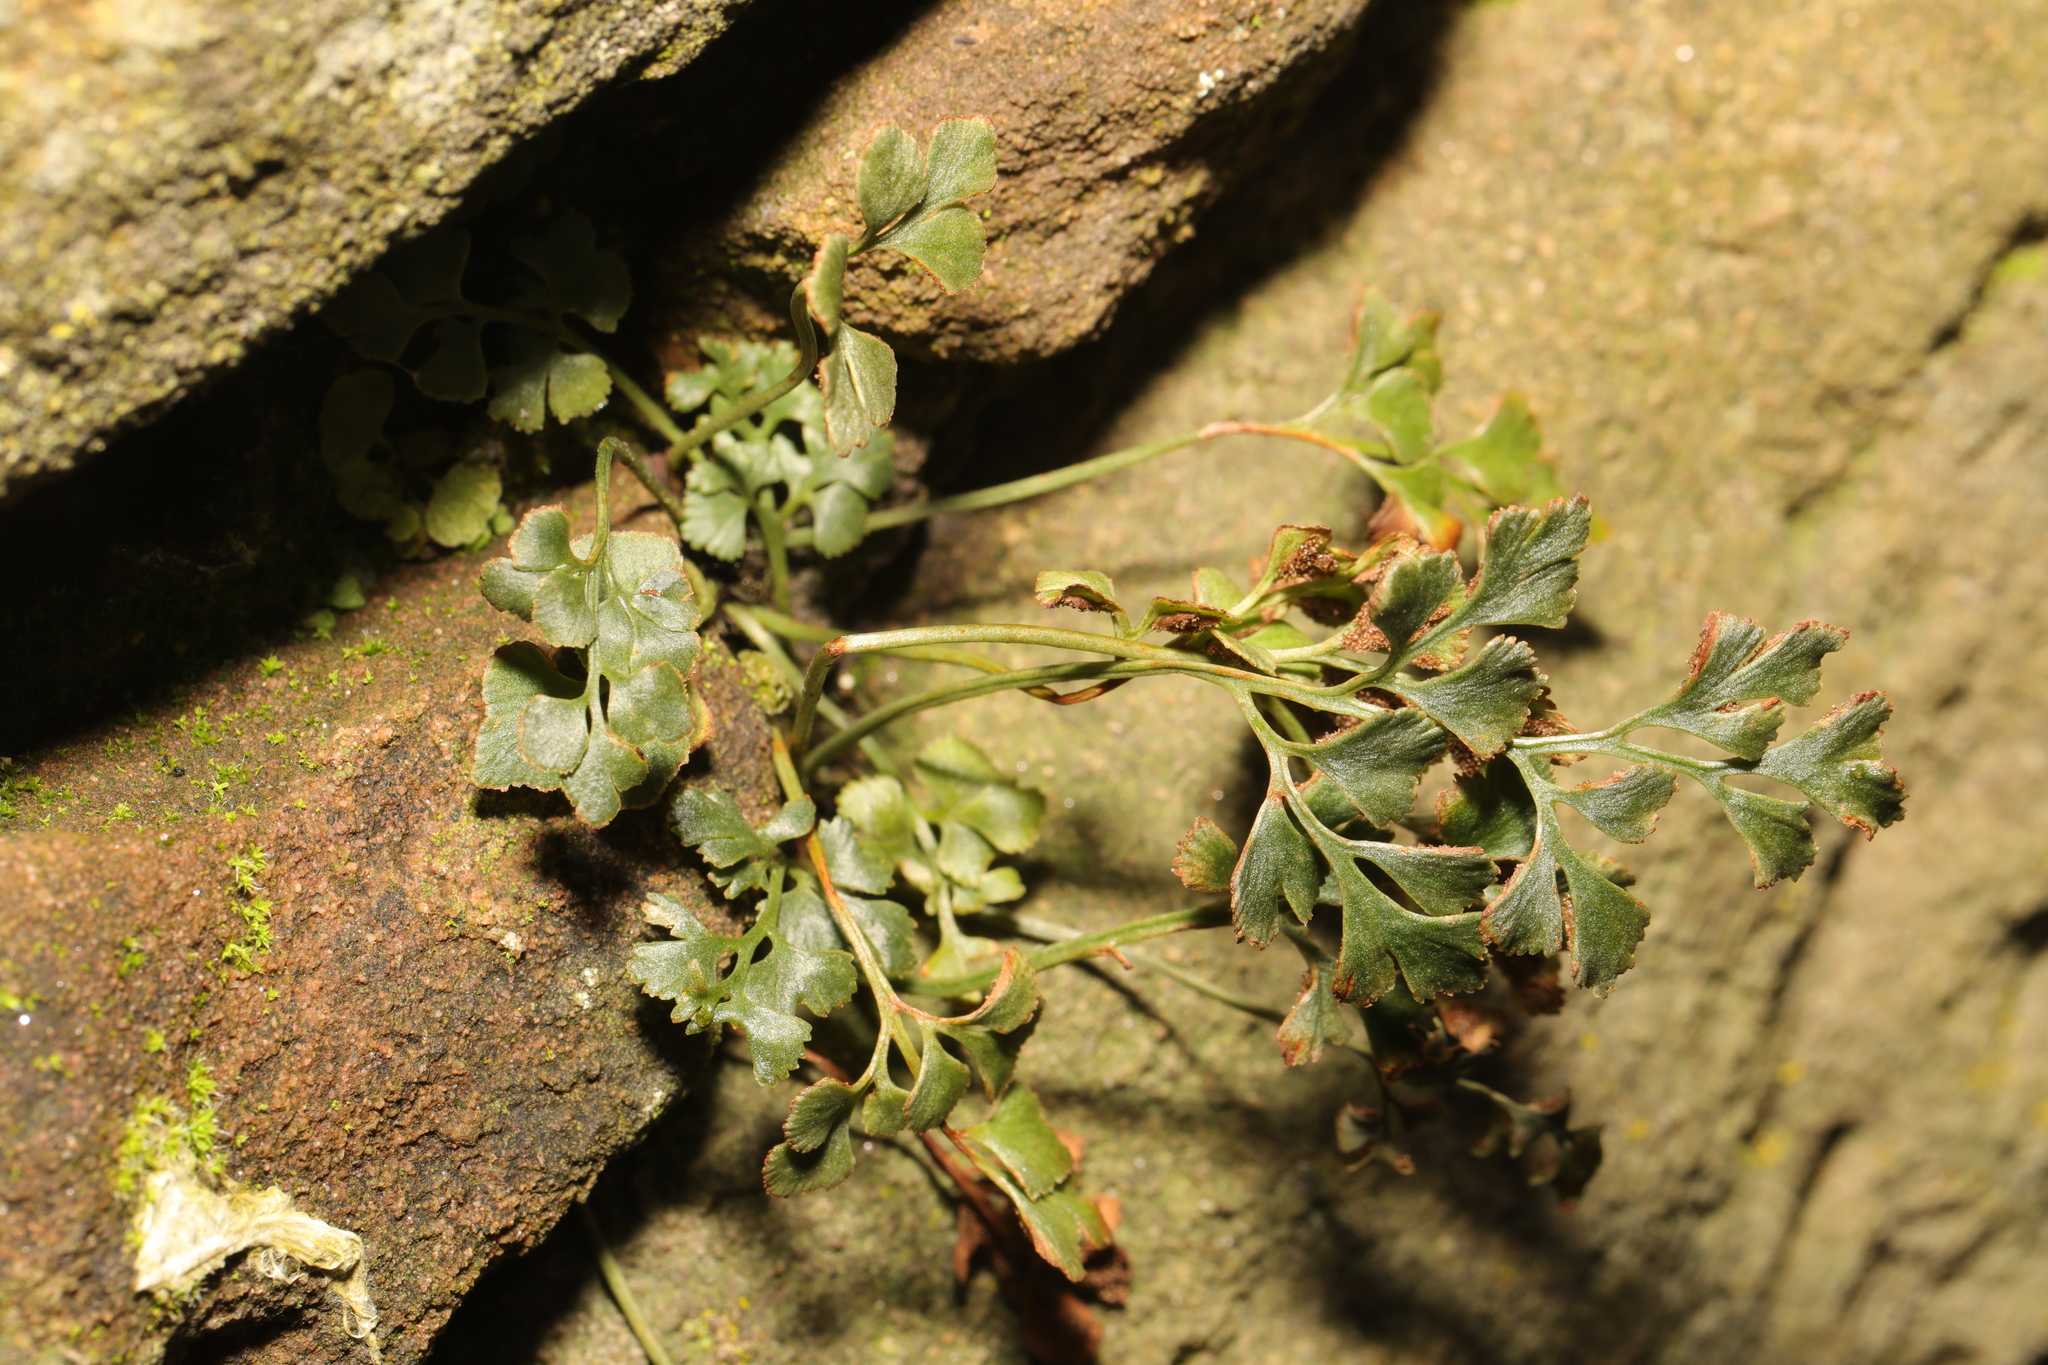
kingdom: Plantae
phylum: Tracheophyta
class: Polypodiopsida
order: Polypodiales
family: Aspleniaceae
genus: Asplenium
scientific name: Asplenium ruta-muraria
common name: Wall-rue
